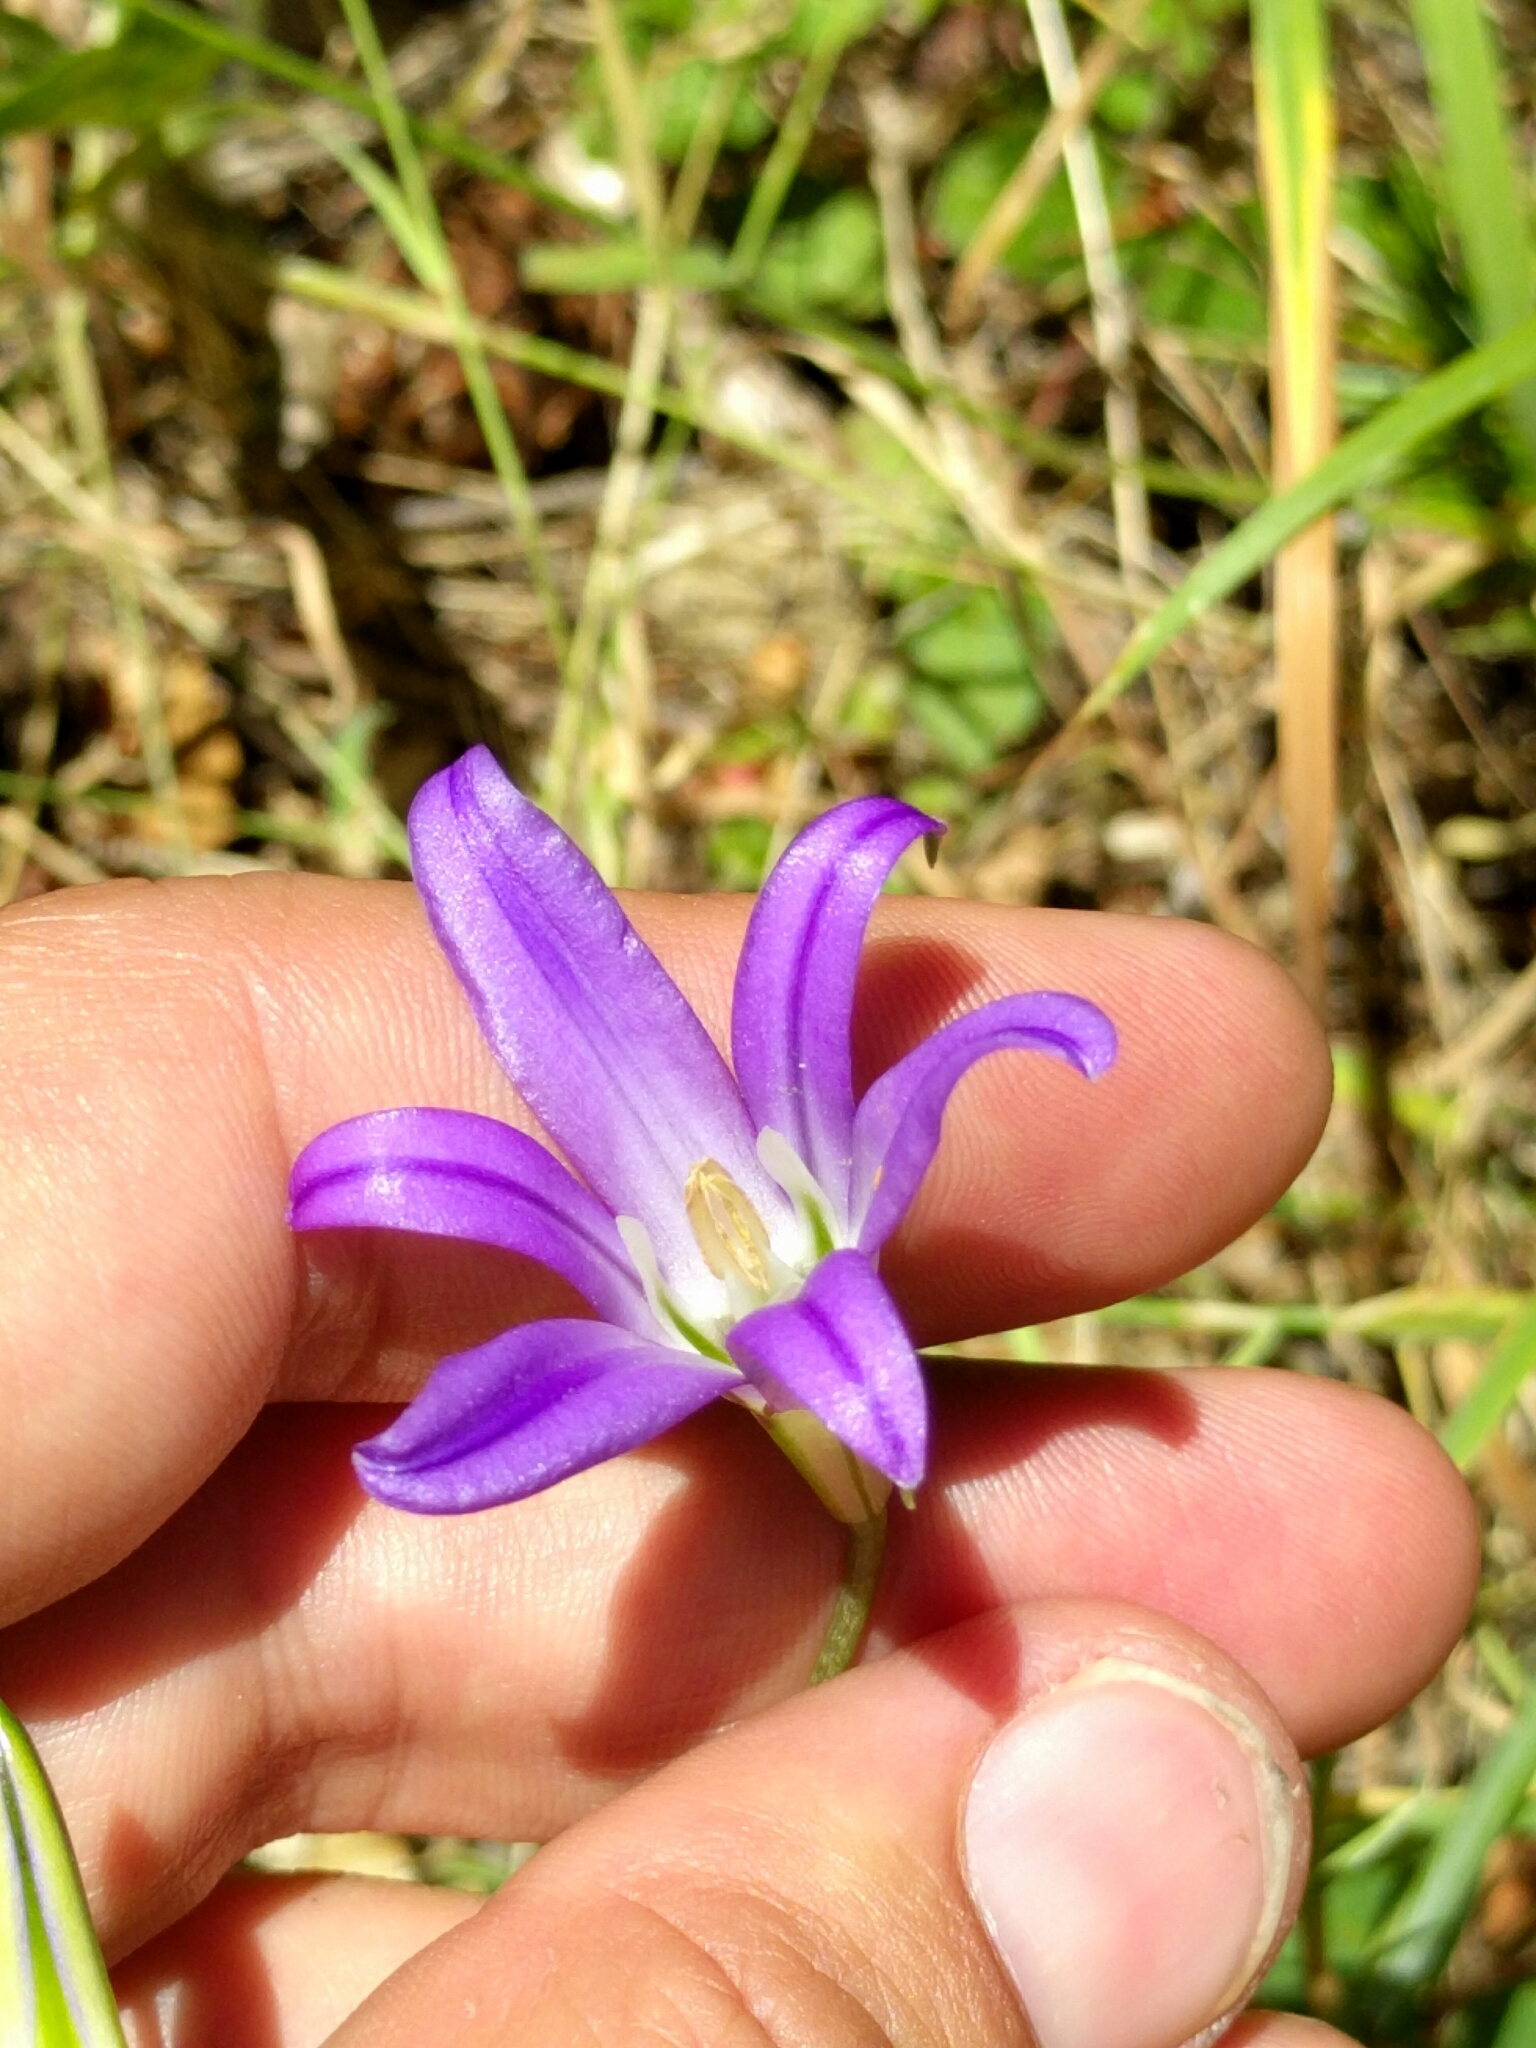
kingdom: Plantae
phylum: Tracheophyta
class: Liliopsida
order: Asparagales
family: Asparagaceae
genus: Brodiaea
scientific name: Brodiaea elegans
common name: Elegant cluster-lily
